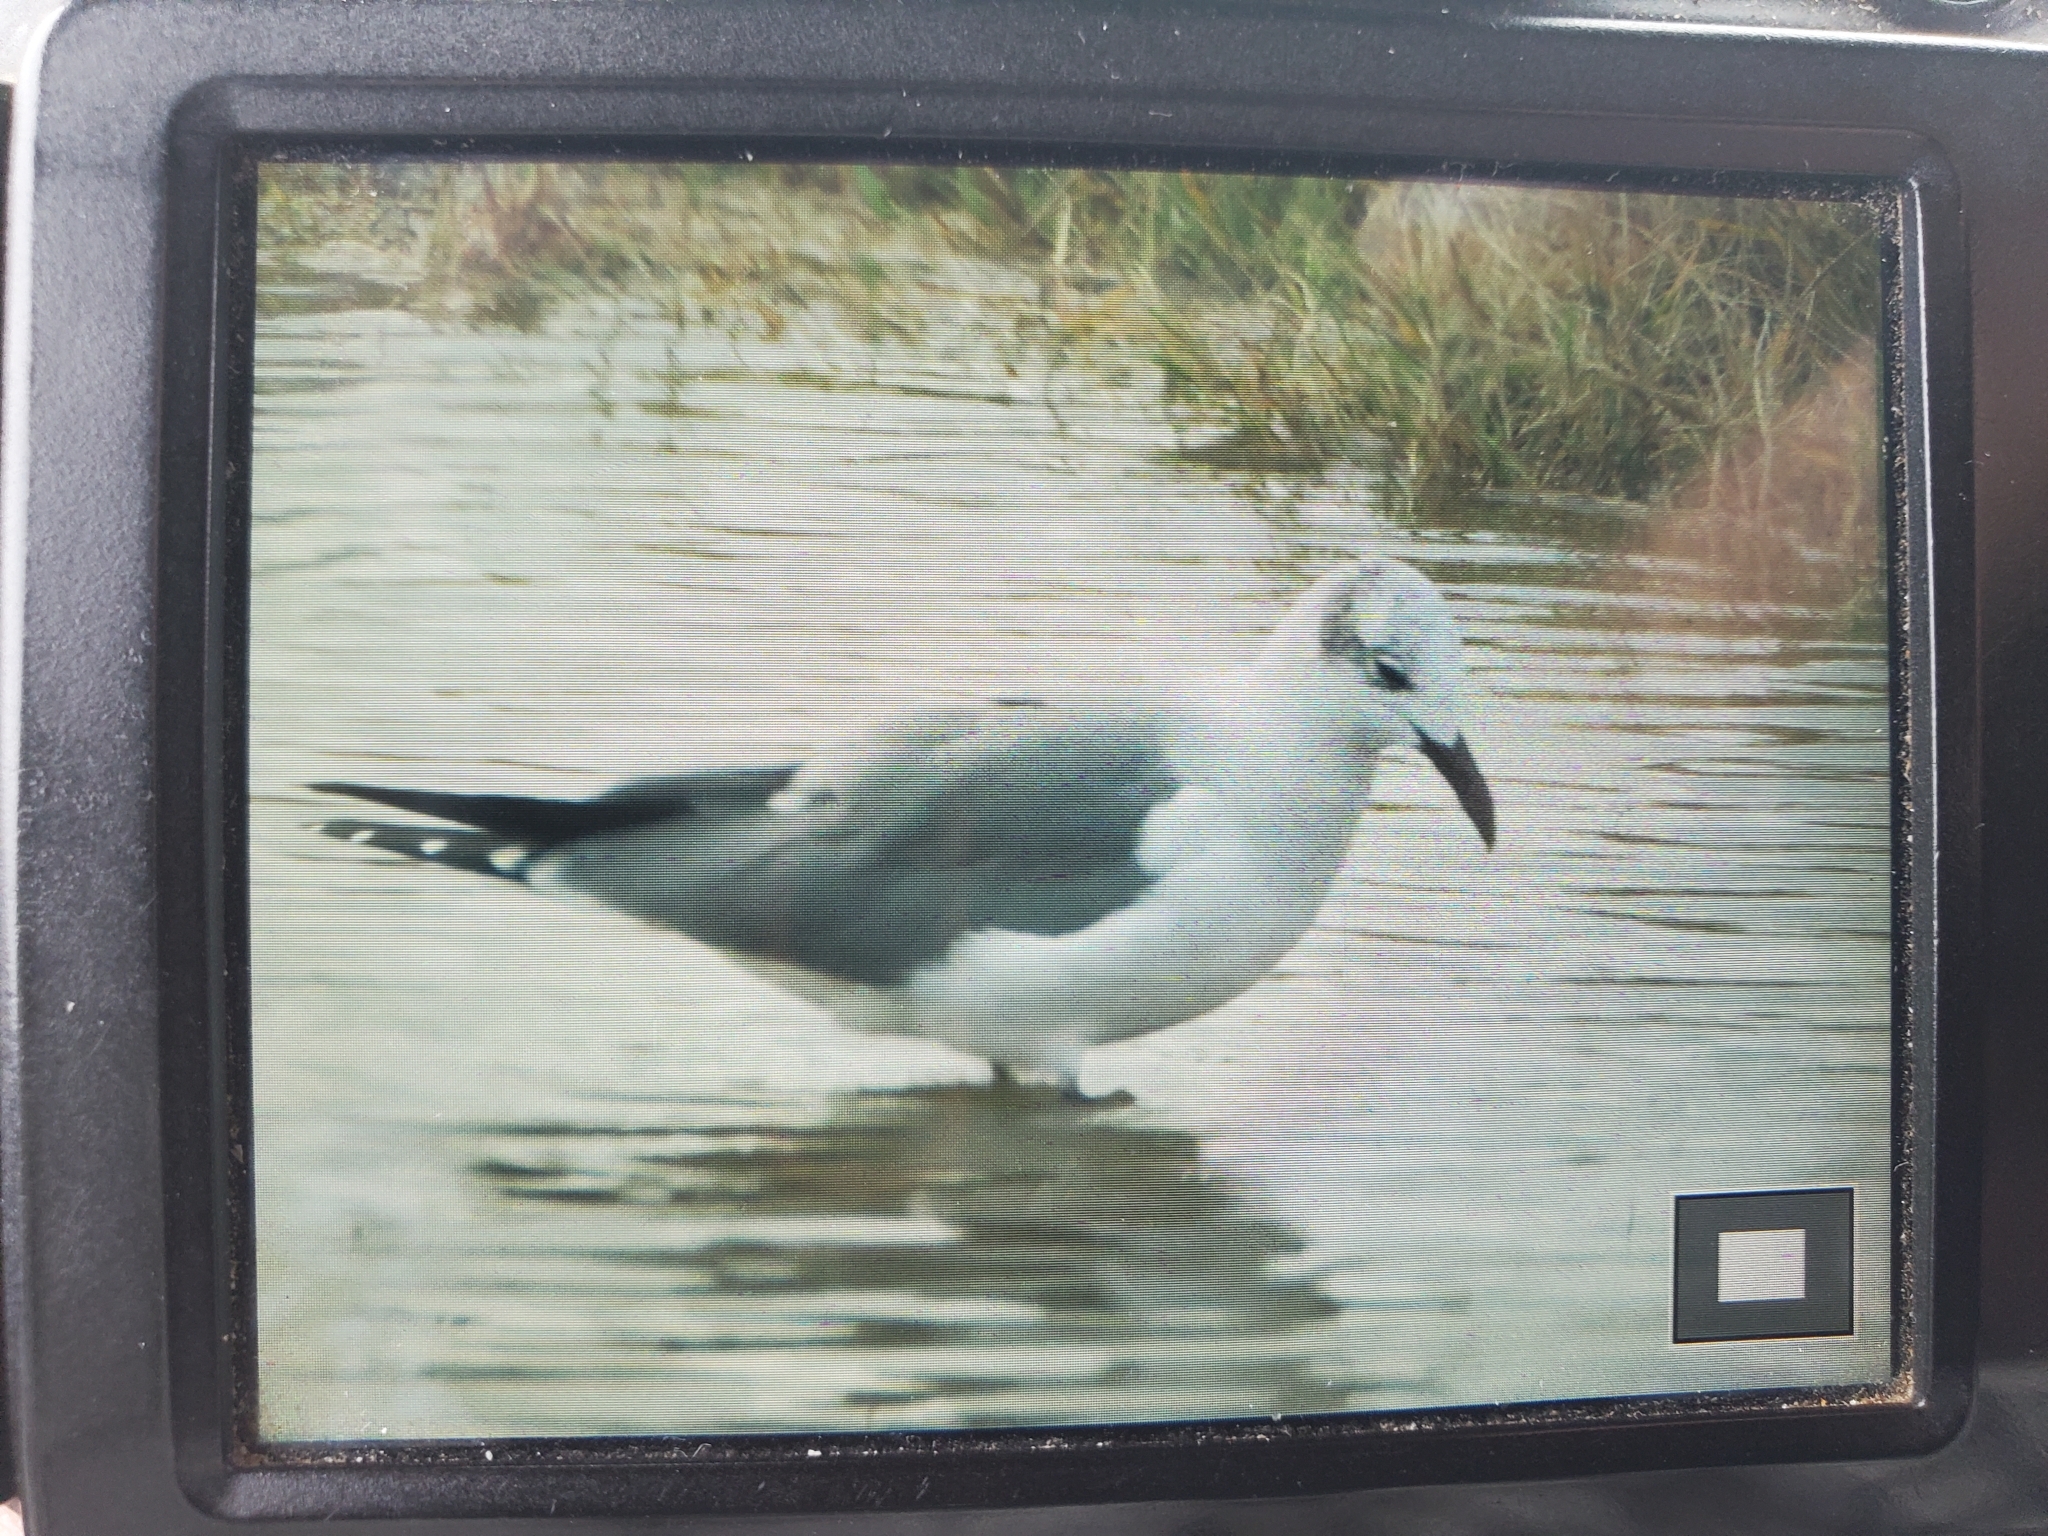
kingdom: Animalia
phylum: Chordata
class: Aves
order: Charadriiformes
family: Laridae
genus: Leucophaeus
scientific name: Leucophaeus atricilla
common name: Laughing gull
